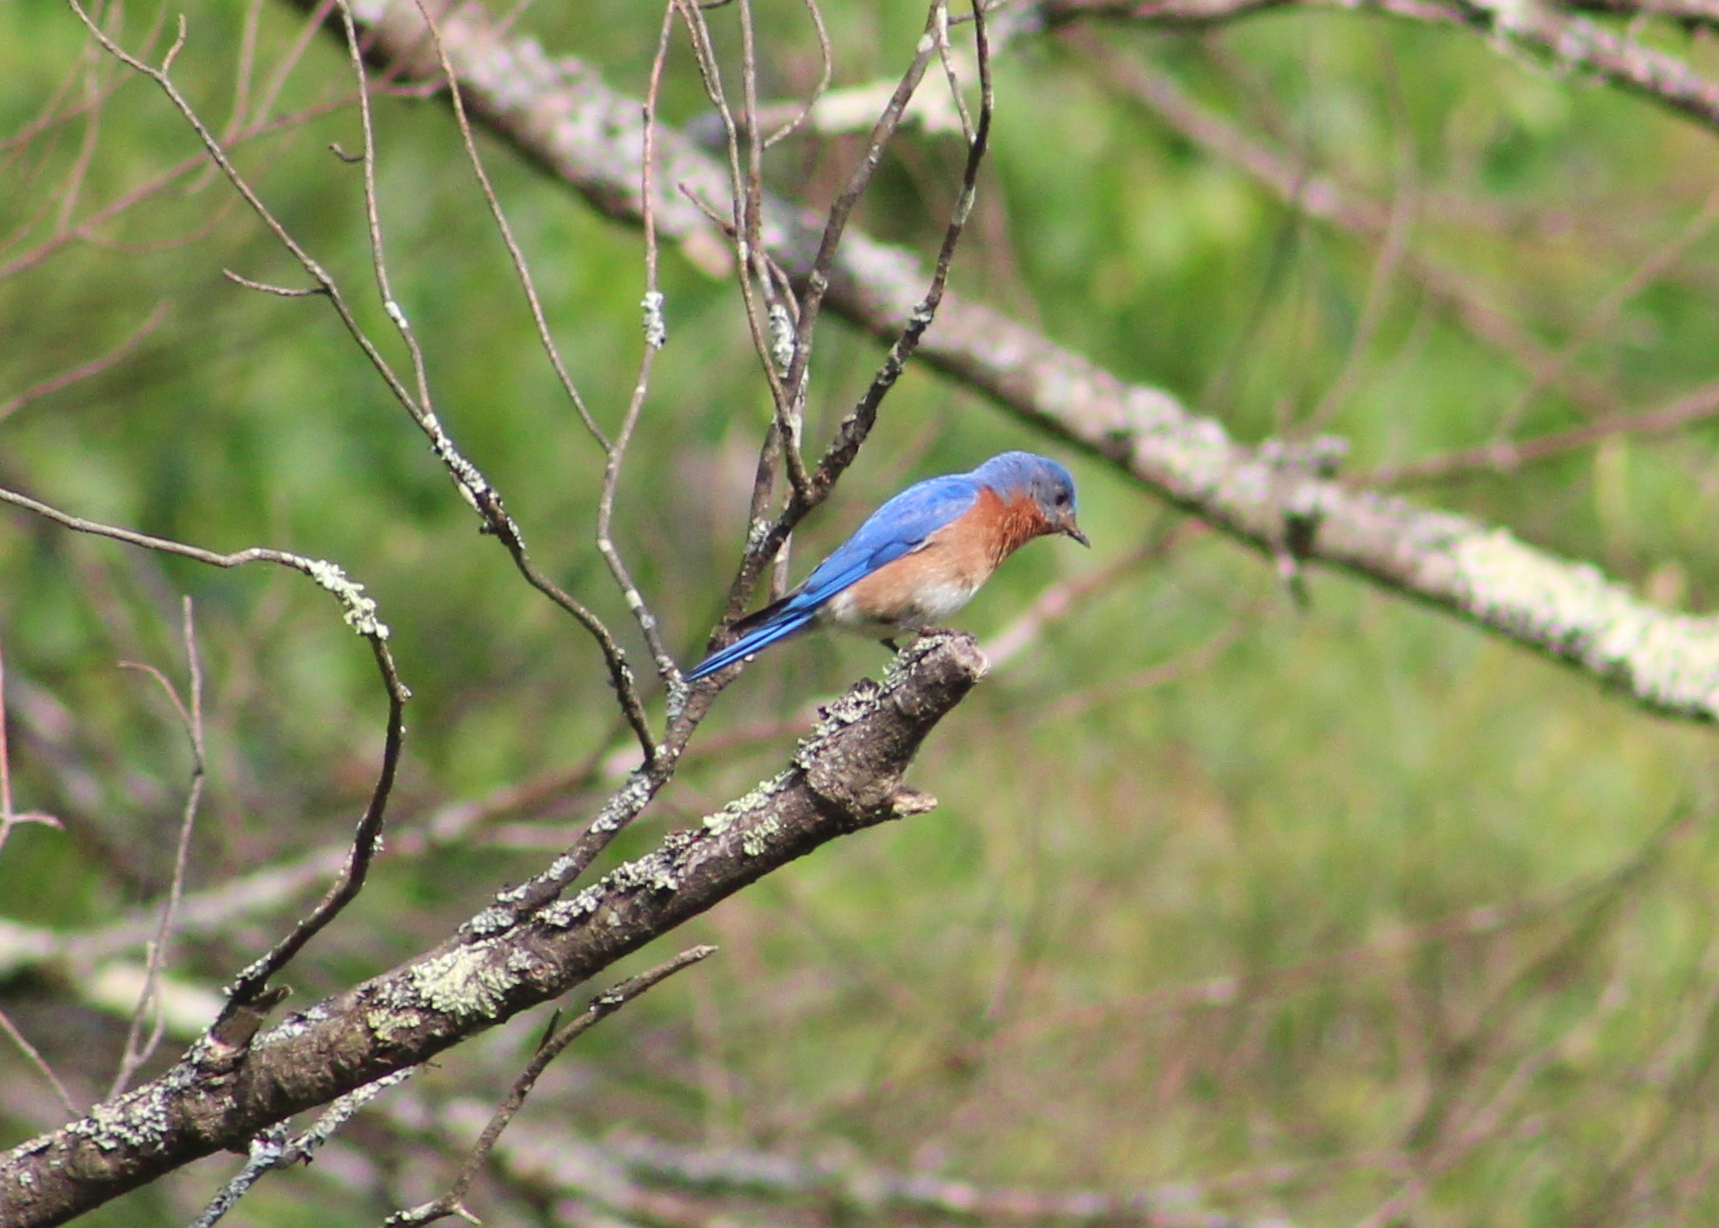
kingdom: Animalia
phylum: Chordata
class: Aves
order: Passeriformes
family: Turdidae
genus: Sialia
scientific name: Sialia sialis
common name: Eastern bluebird
